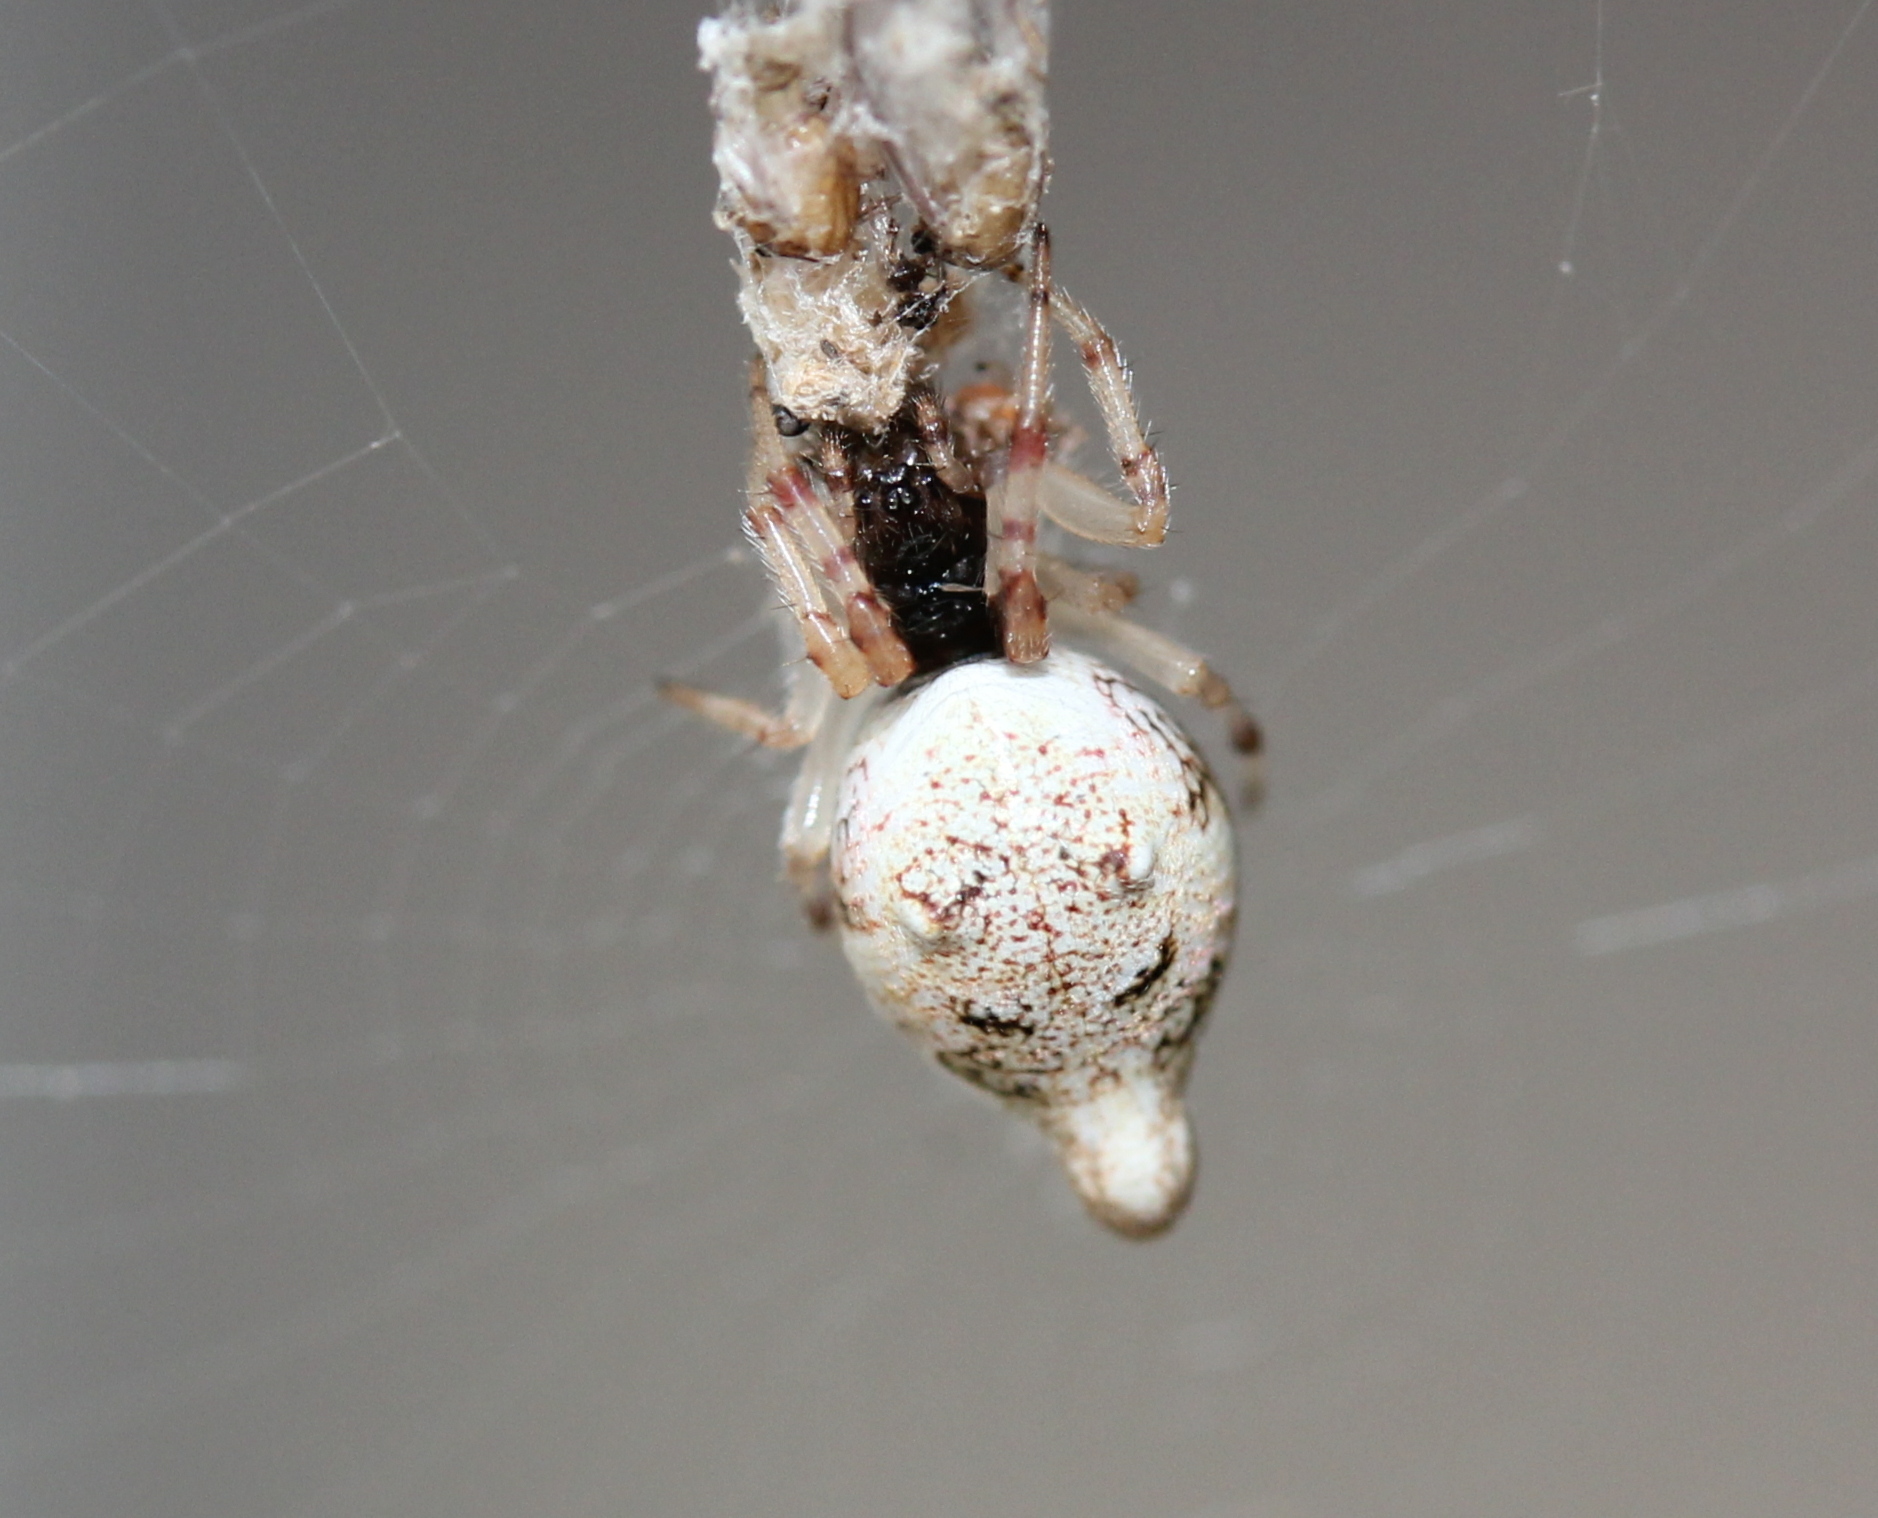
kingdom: Animalia
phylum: Arthropoda
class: Arachnida
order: Araneae
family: Araneidae
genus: Cyclosa
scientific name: Cyclosa turbinata
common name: Orb weavers
